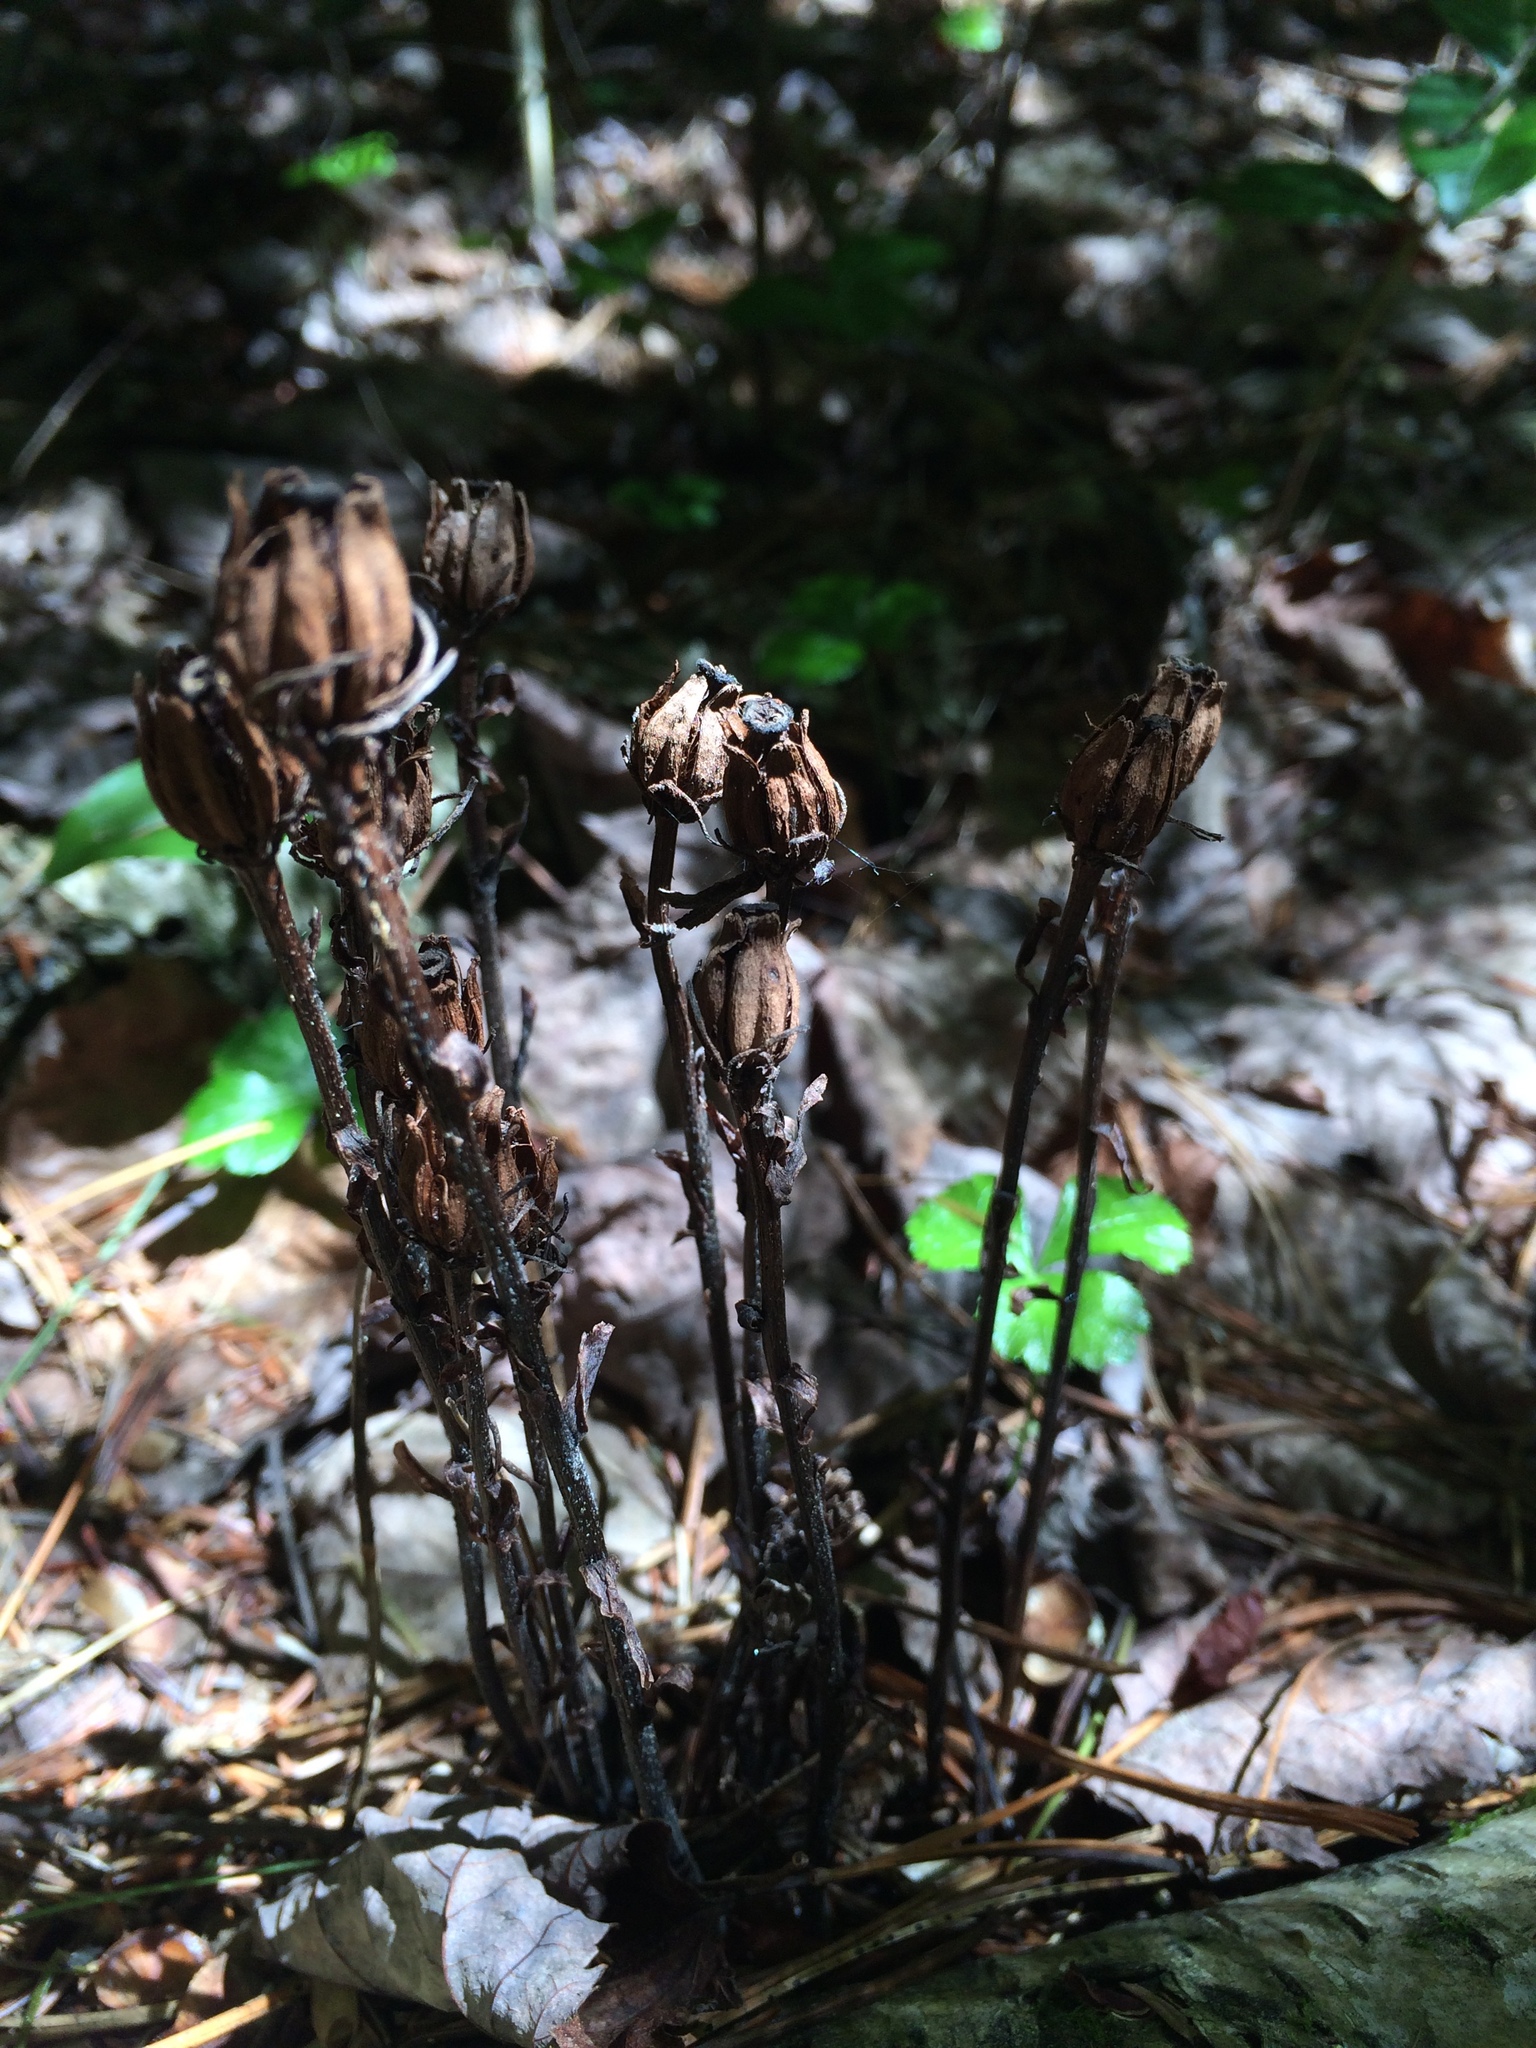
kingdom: Plantae
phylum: Tracheophyta
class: Magnoliopsida
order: Ericales
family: Ericaceae
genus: Monotropa
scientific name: Monotropa uniflora
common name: Convulsion root
